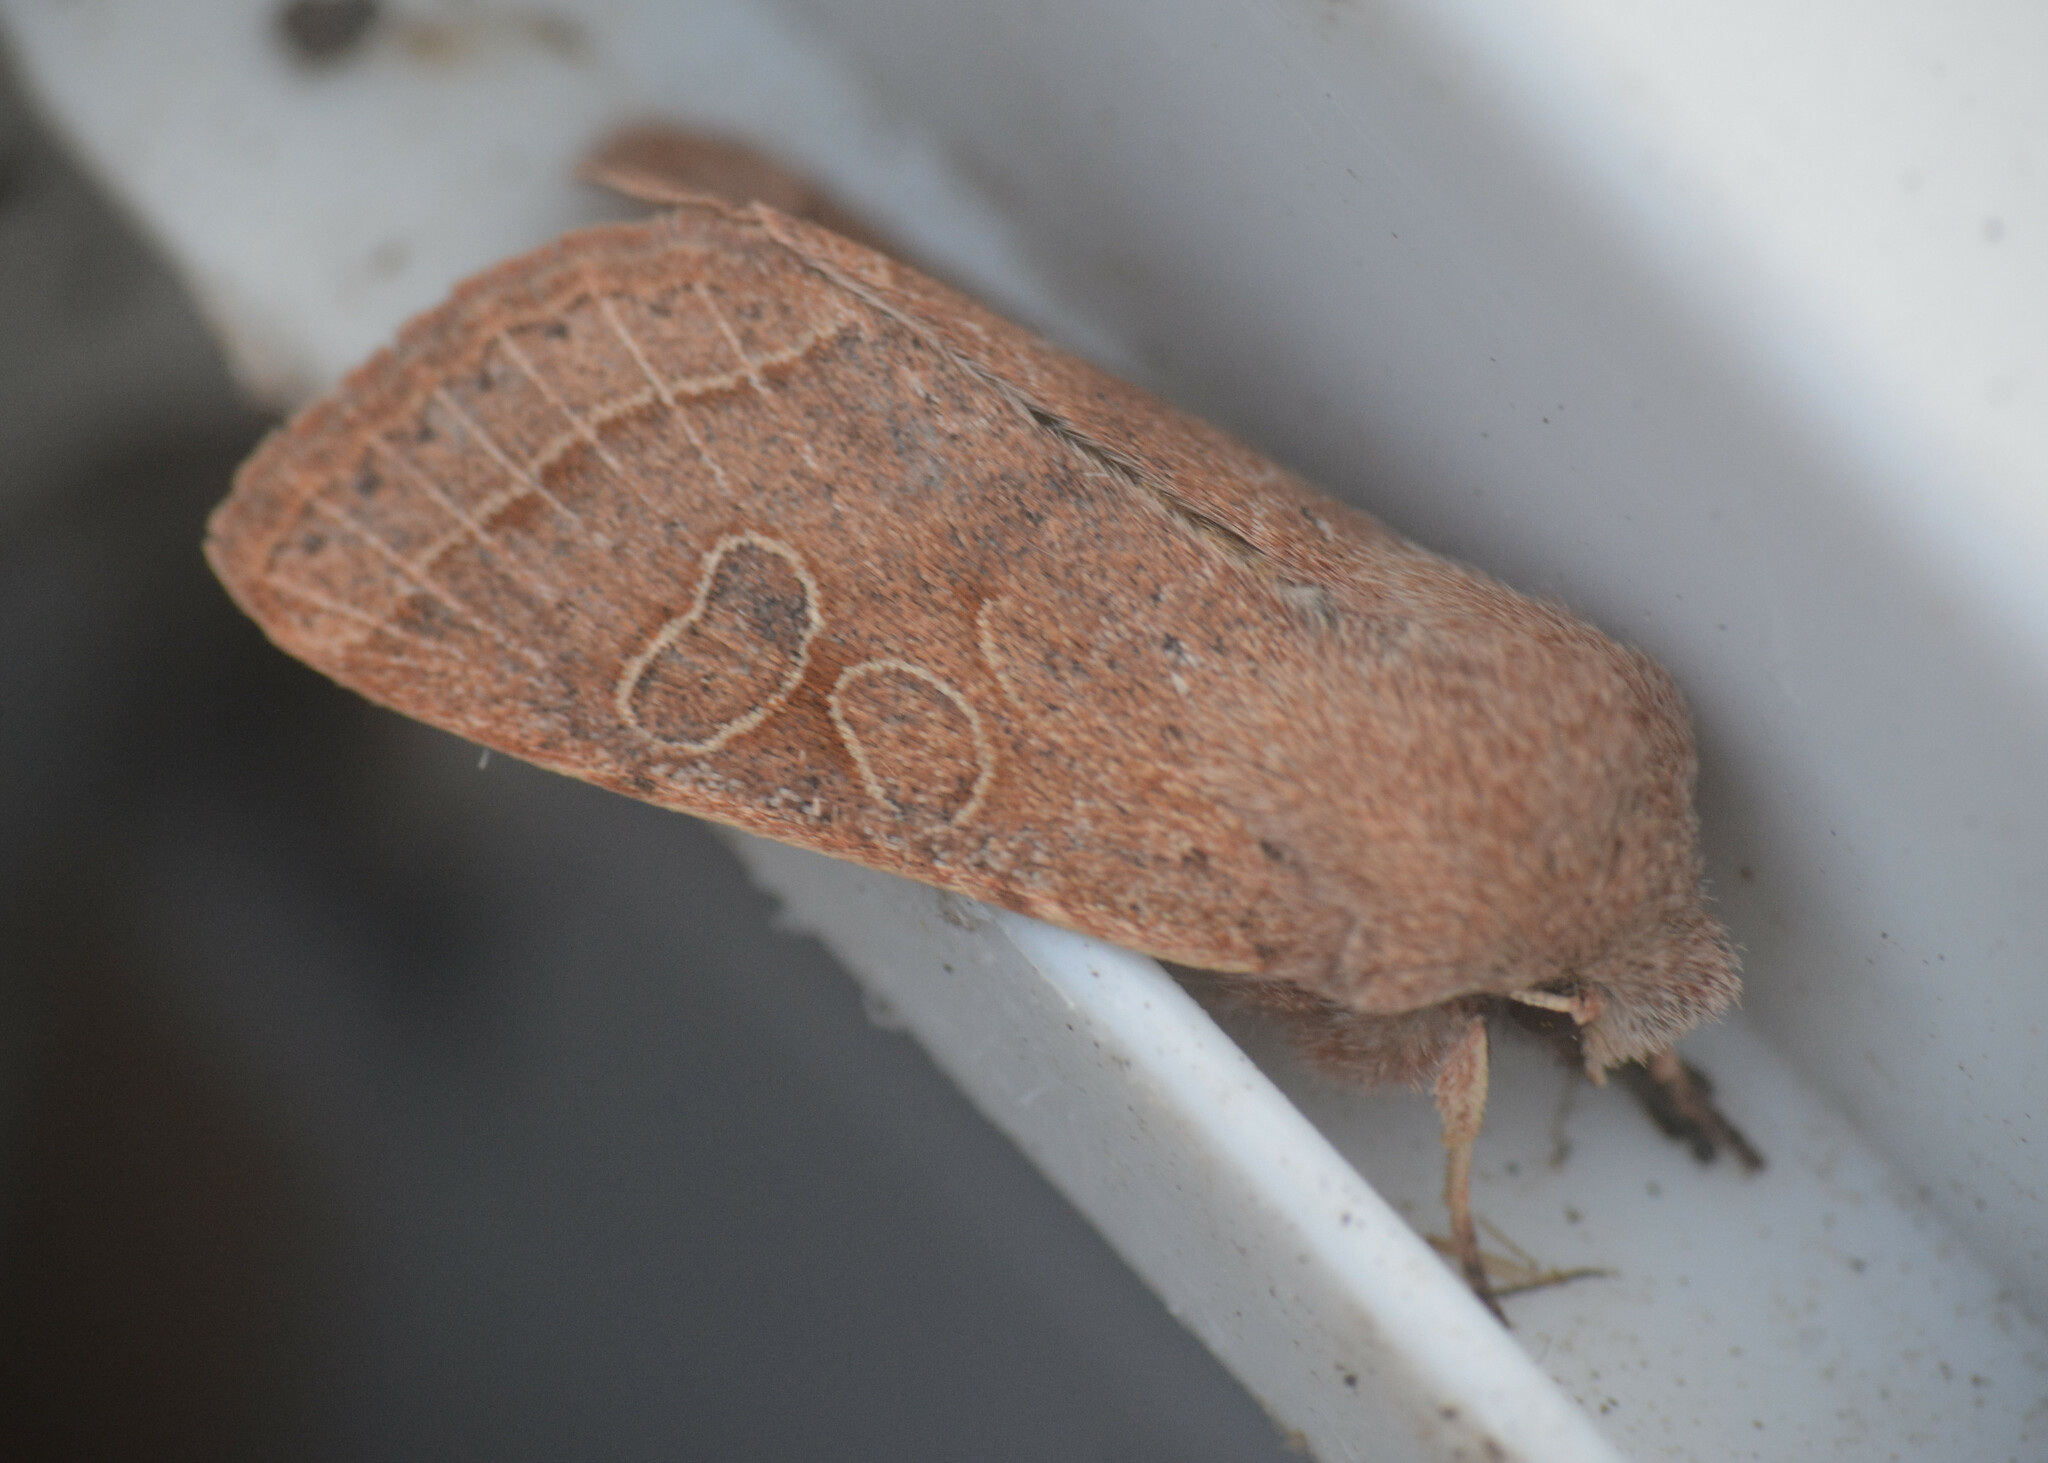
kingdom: Animalia
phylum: Arthropoda
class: Insecta
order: Lepidoptera
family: Noctuidae
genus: Orthosia
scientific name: Orthosia cerasi
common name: Common quaker
